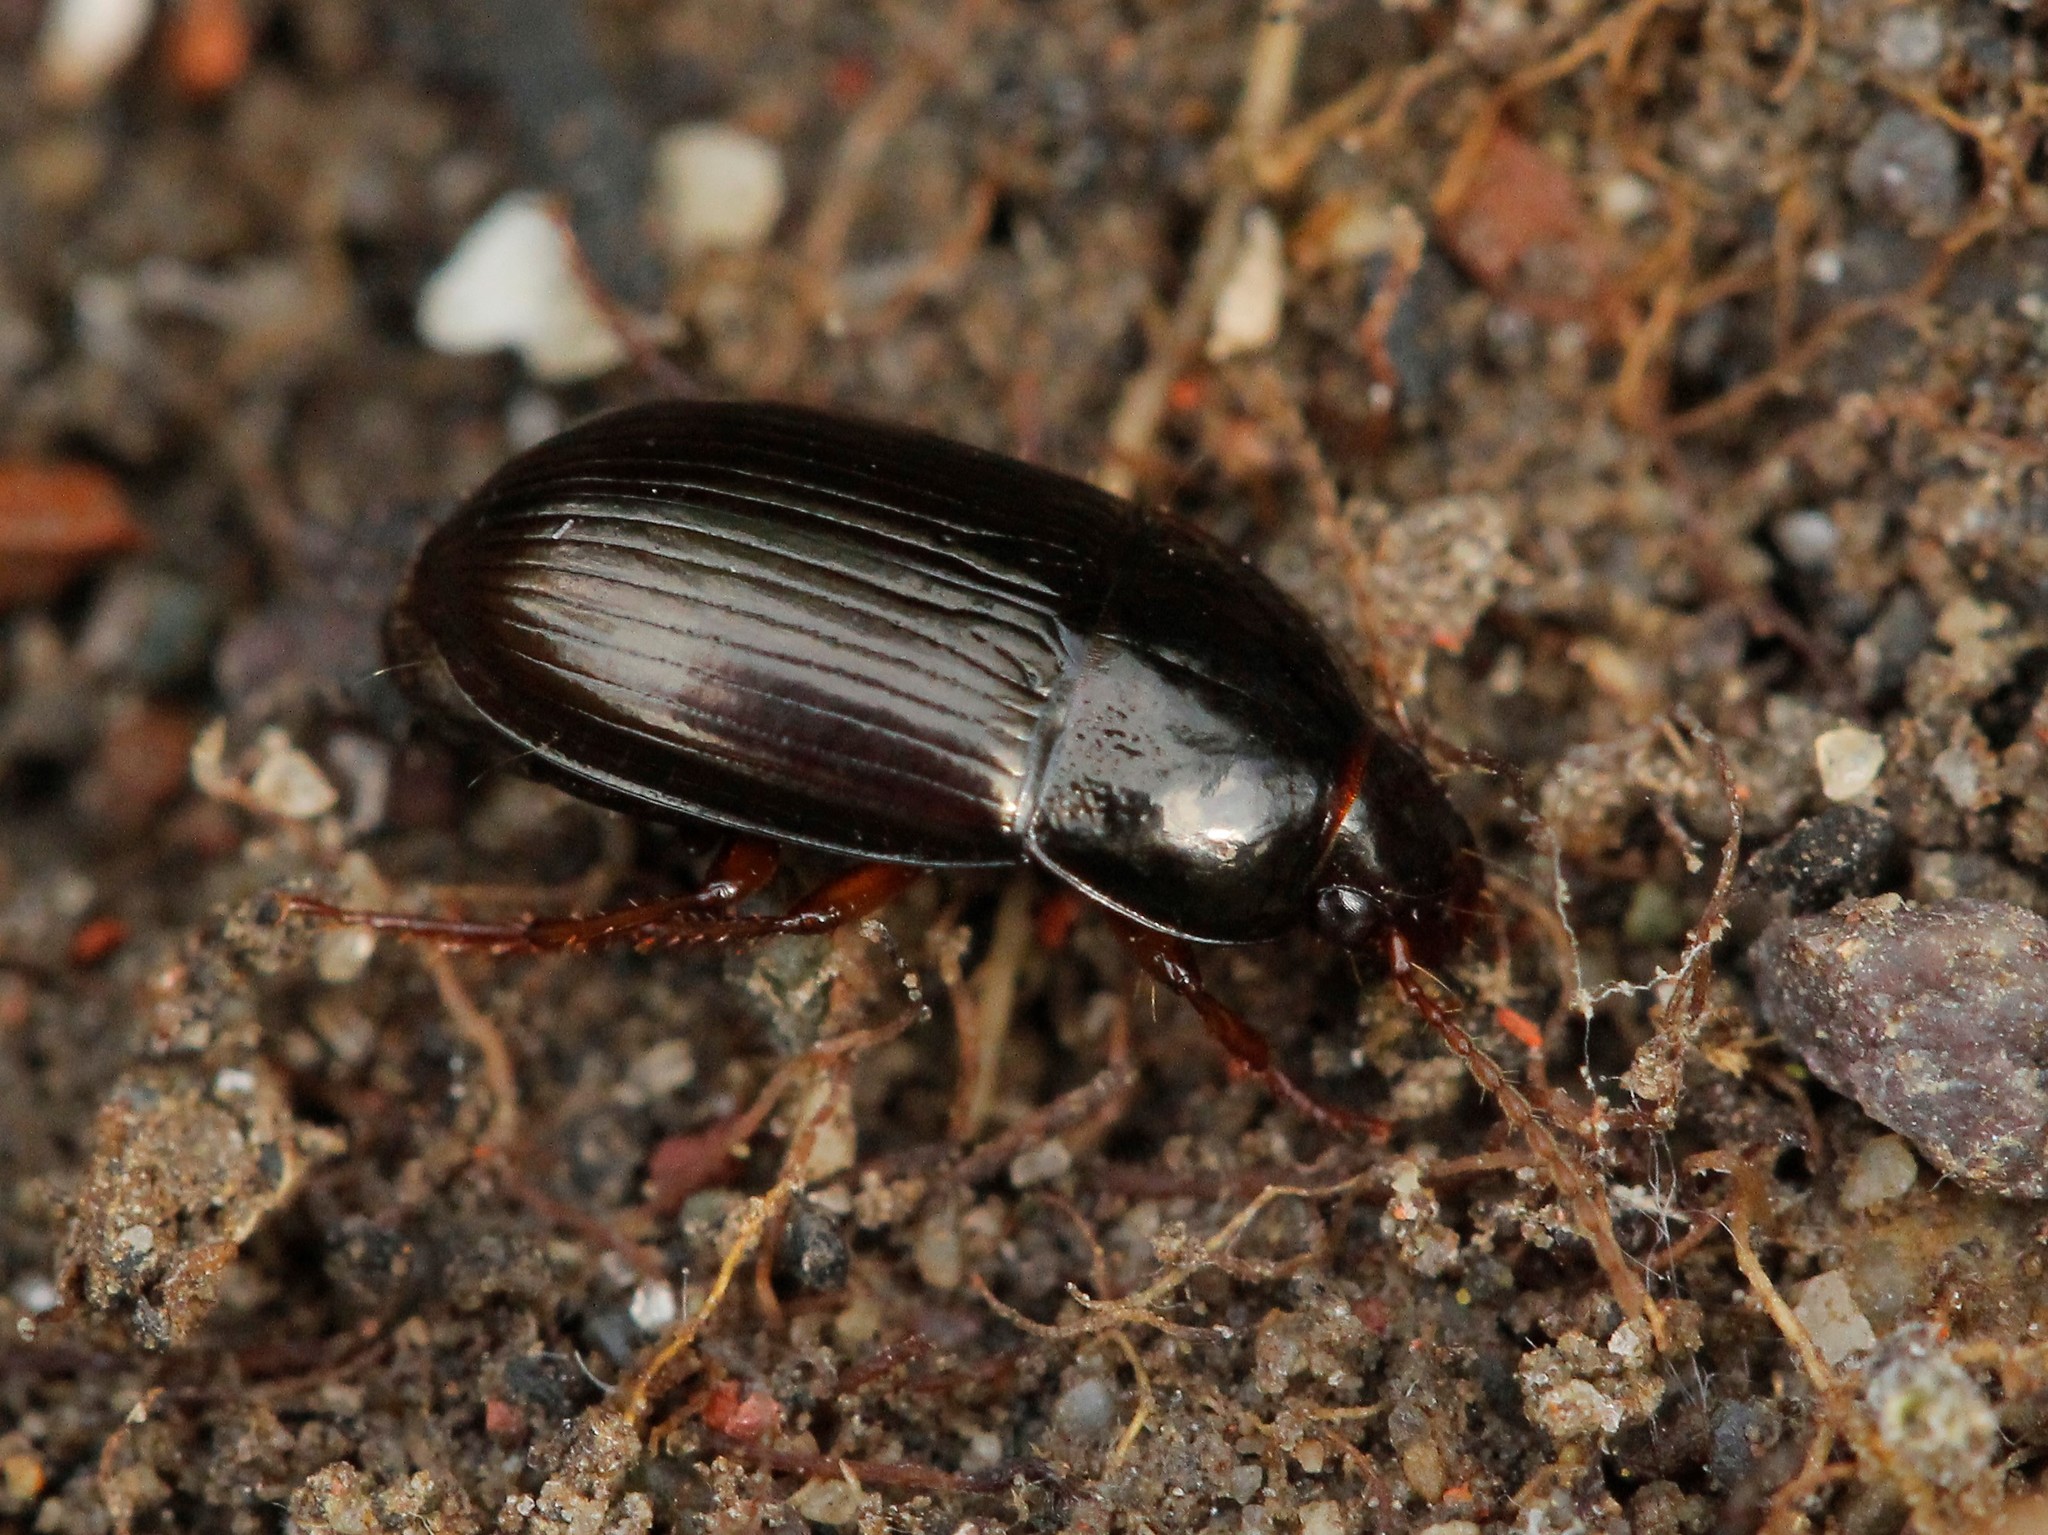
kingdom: Animalia
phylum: Arthropoda
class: Insecta
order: Coleoptera
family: Carabidae
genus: Amara
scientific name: Amara brunnea
